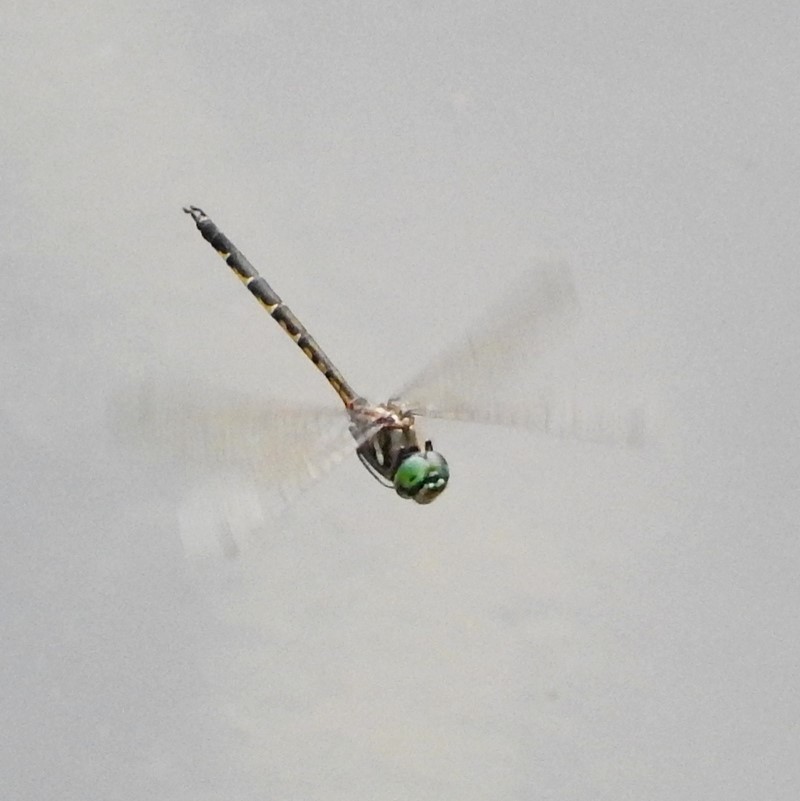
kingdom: Animalia
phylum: Arthropoda
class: Insecta
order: Odonata
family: Corduliidae
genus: Hemicordulia
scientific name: Hemicordulia australiae
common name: Sentry dragonfly
